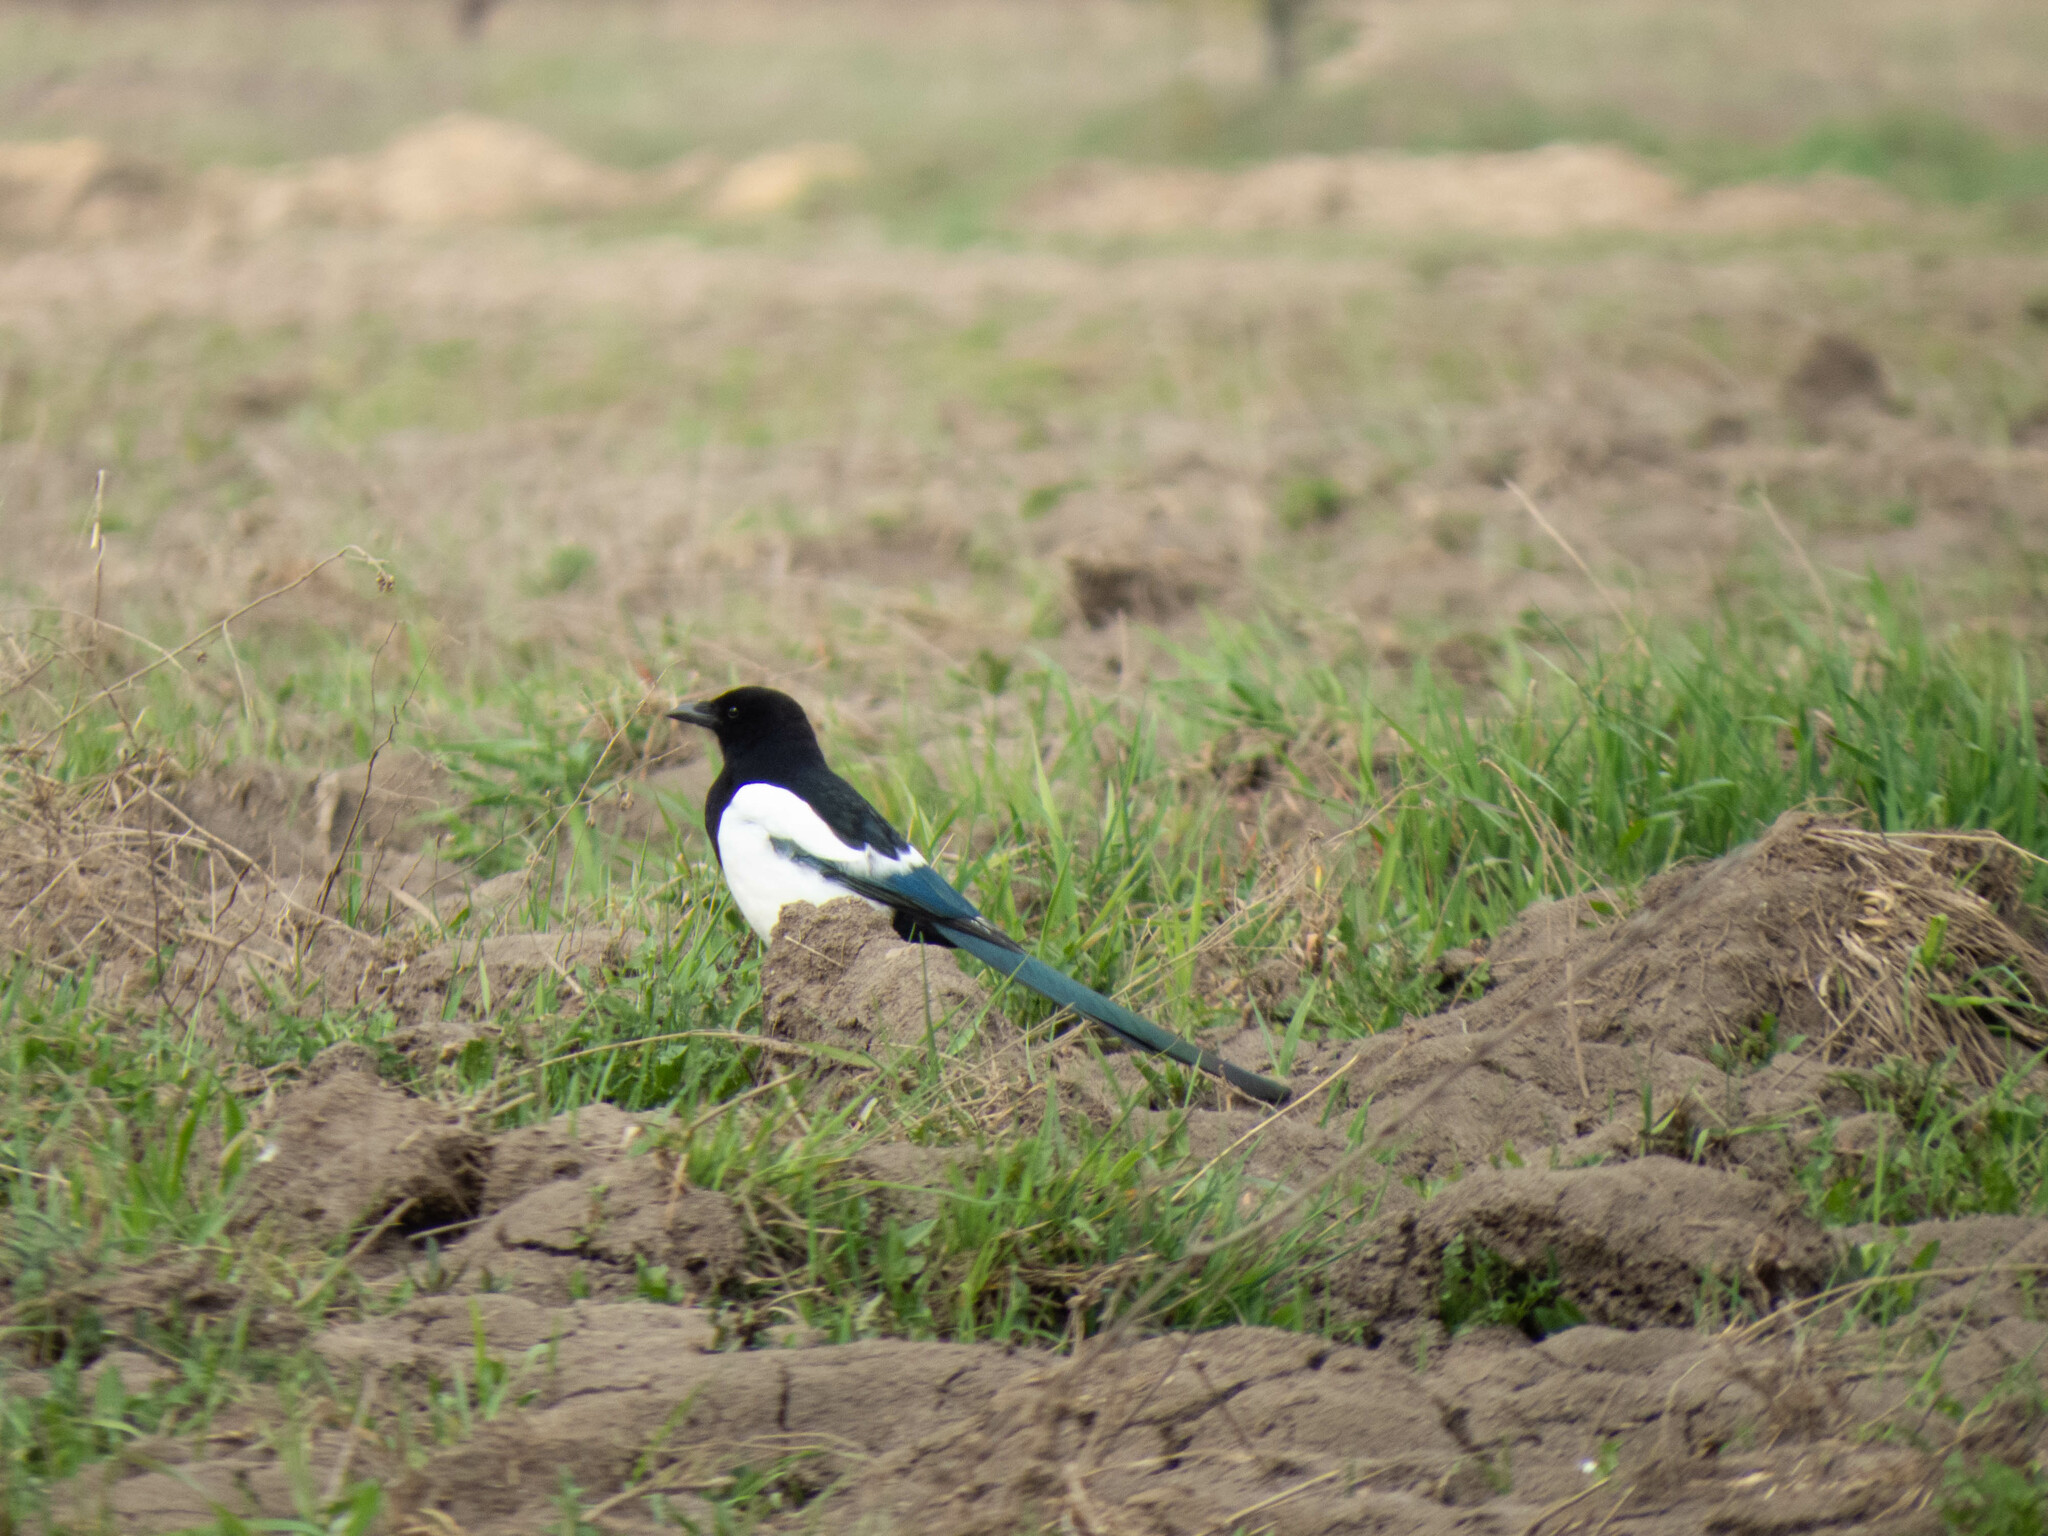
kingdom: Animalia
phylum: Chordata
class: Aves
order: Passeriformes
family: Corvidae
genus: Pica
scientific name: Pica pica
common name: Eurasian magpie
